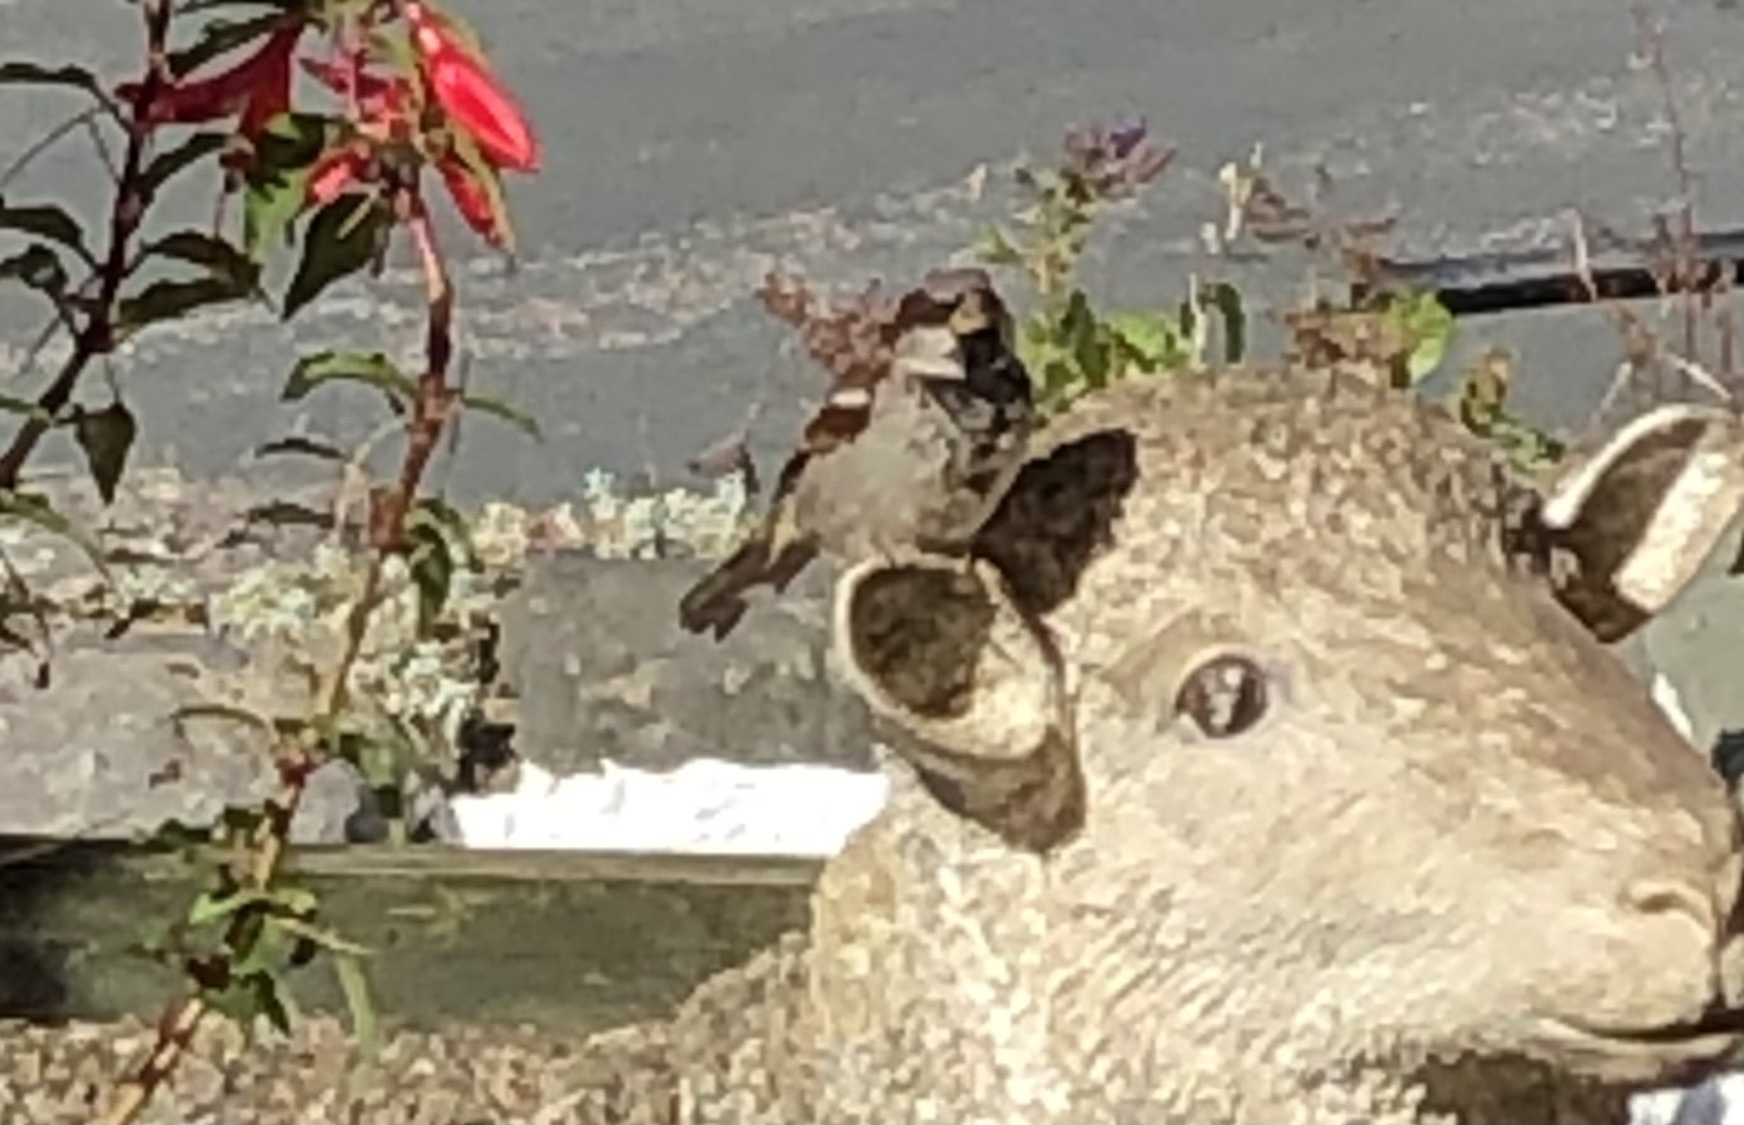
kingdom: Animalia
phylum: Chordata
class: Aves
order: Passeriformes
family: Passeridae
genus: Passer
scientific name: Passer domesticus
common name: House sparrow
